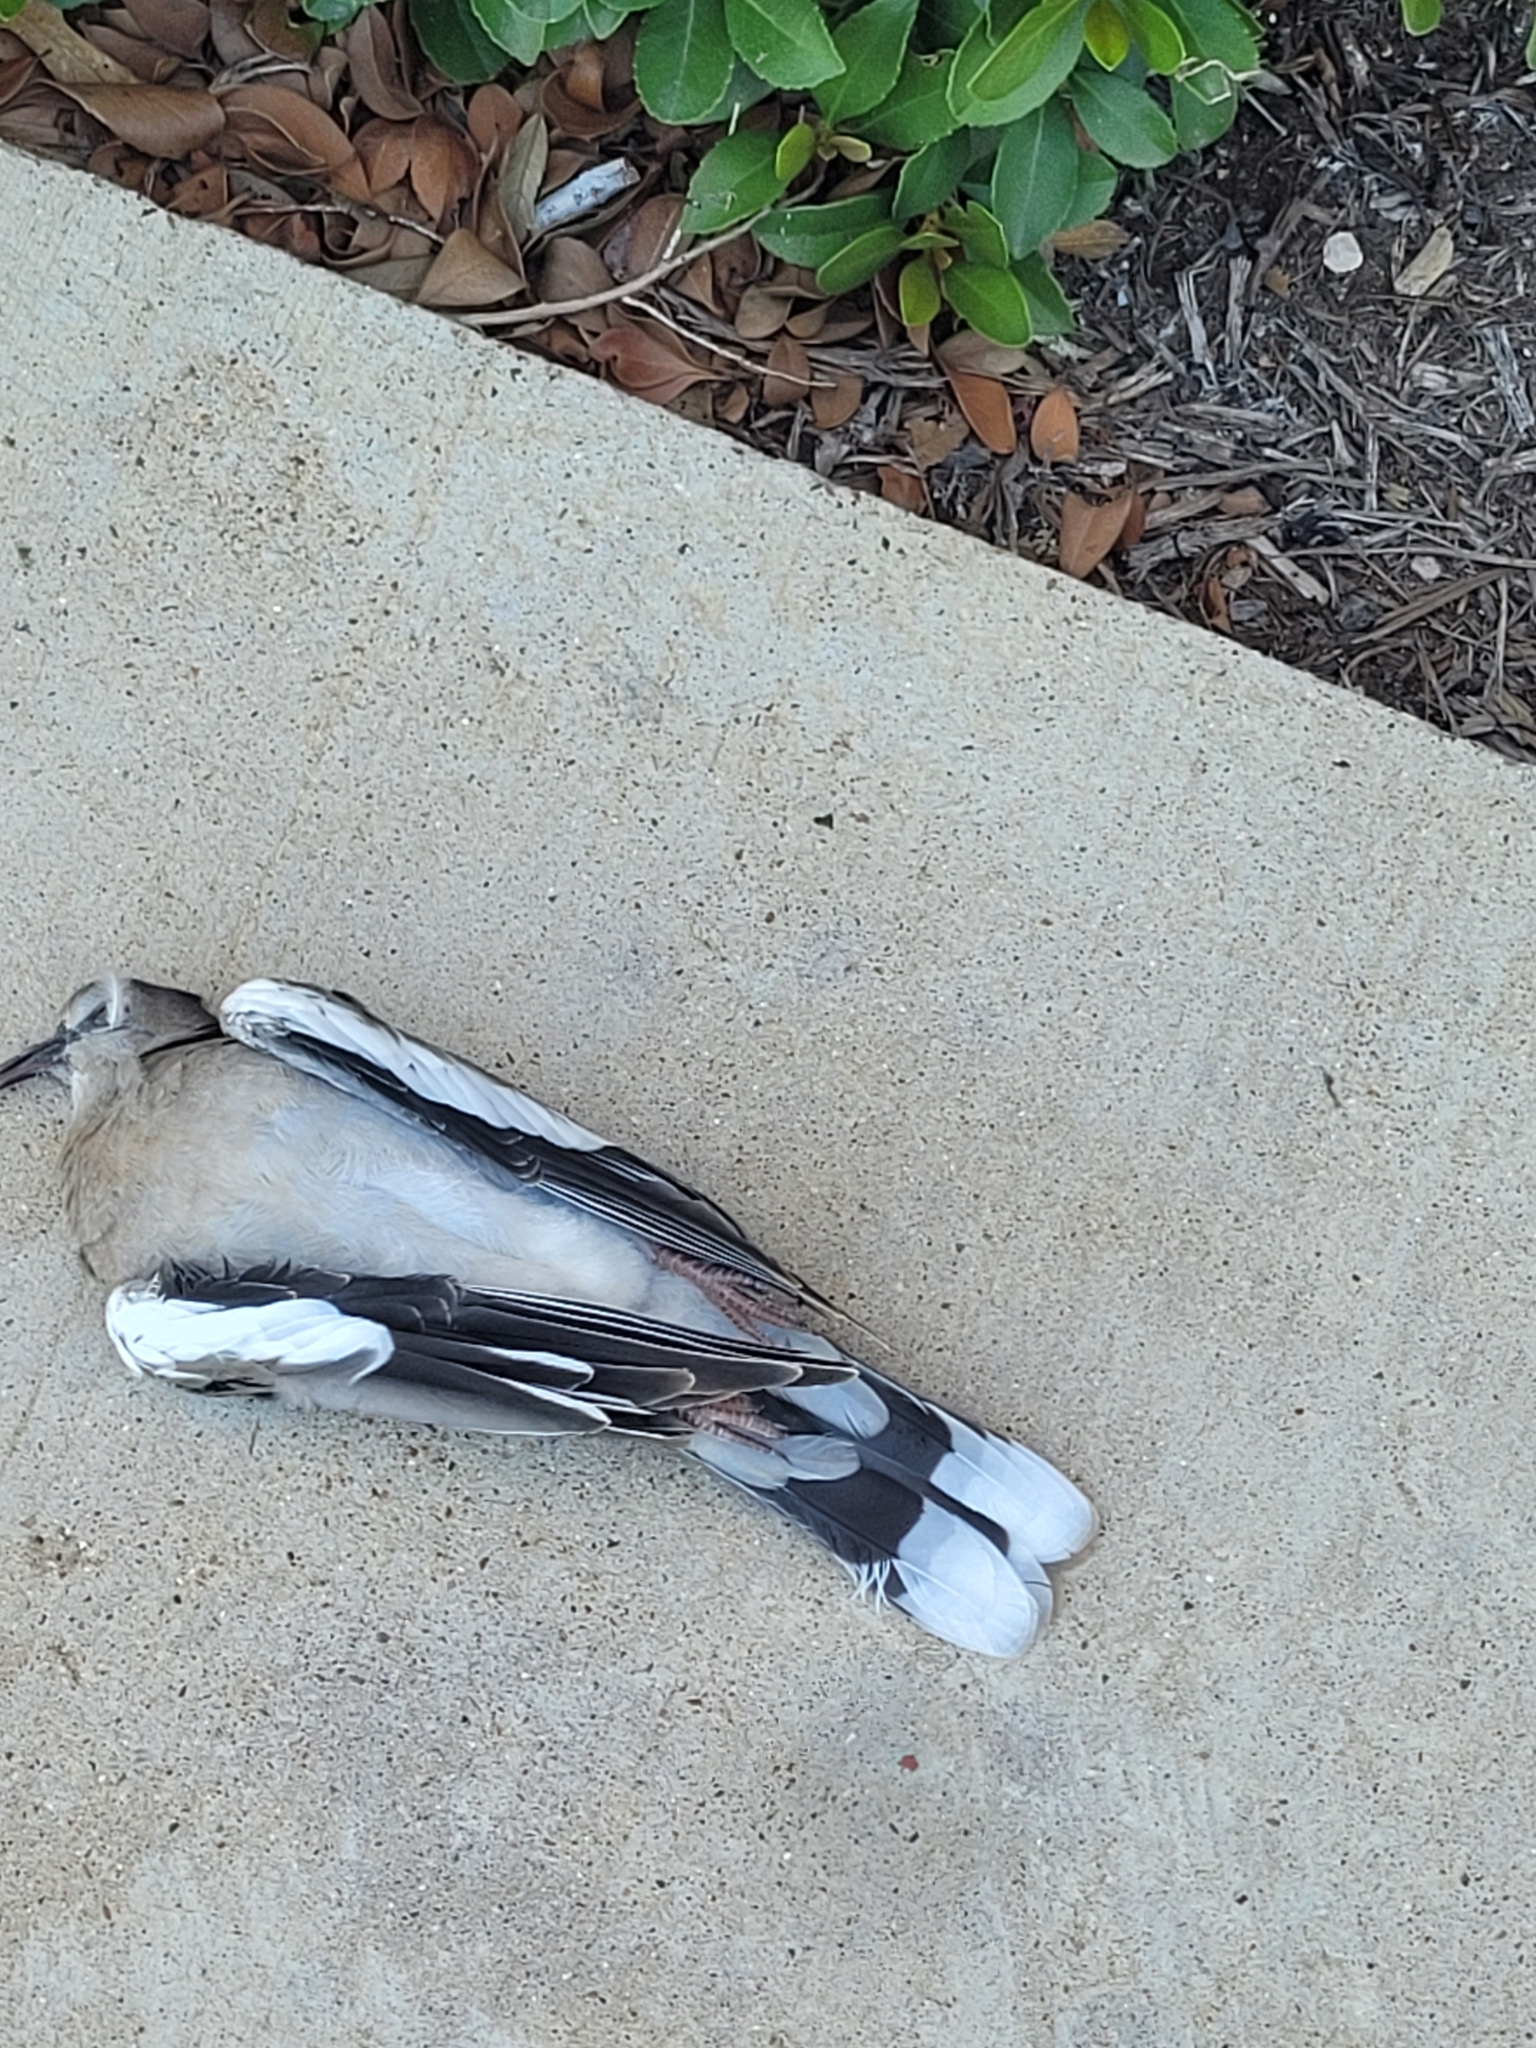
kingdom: Animalia
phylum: Chordata
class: Aves
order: Columbiformes
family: Columbidae
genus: Zenaida
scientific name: Zenaida asiatica
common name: White-winged dove
